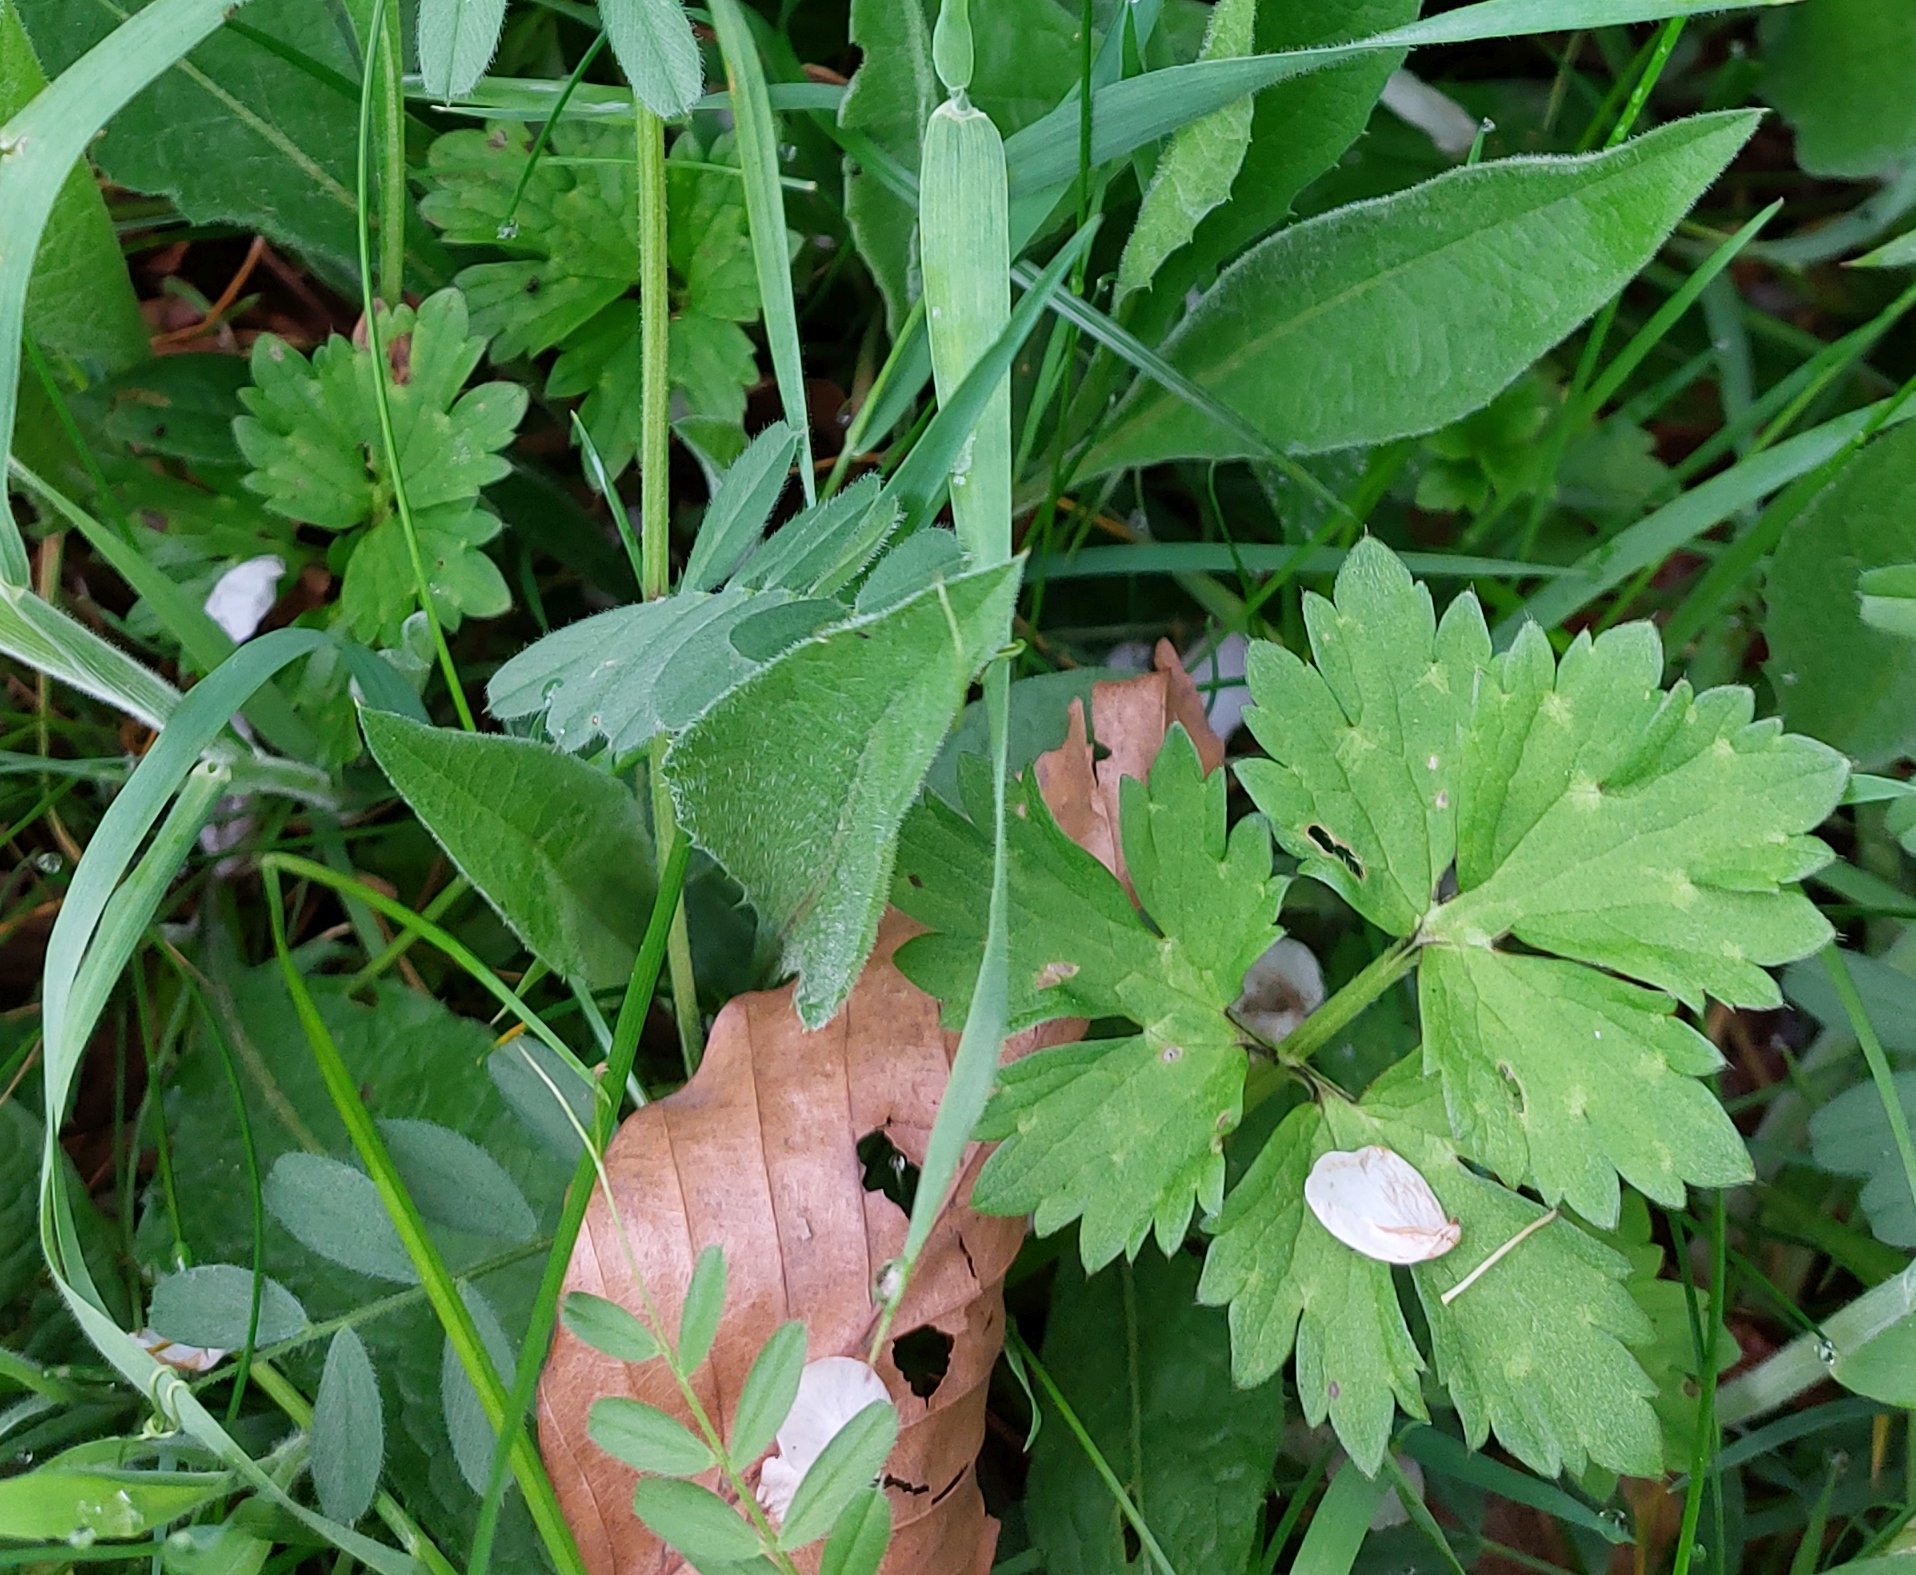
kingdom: Plantae
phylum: Tracheophyta
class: Magnoliopsida
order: Ranunculales
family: Ranunculaceae
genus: Ranunculus
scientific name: Ranunculus repens
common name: Creeping buttercup
